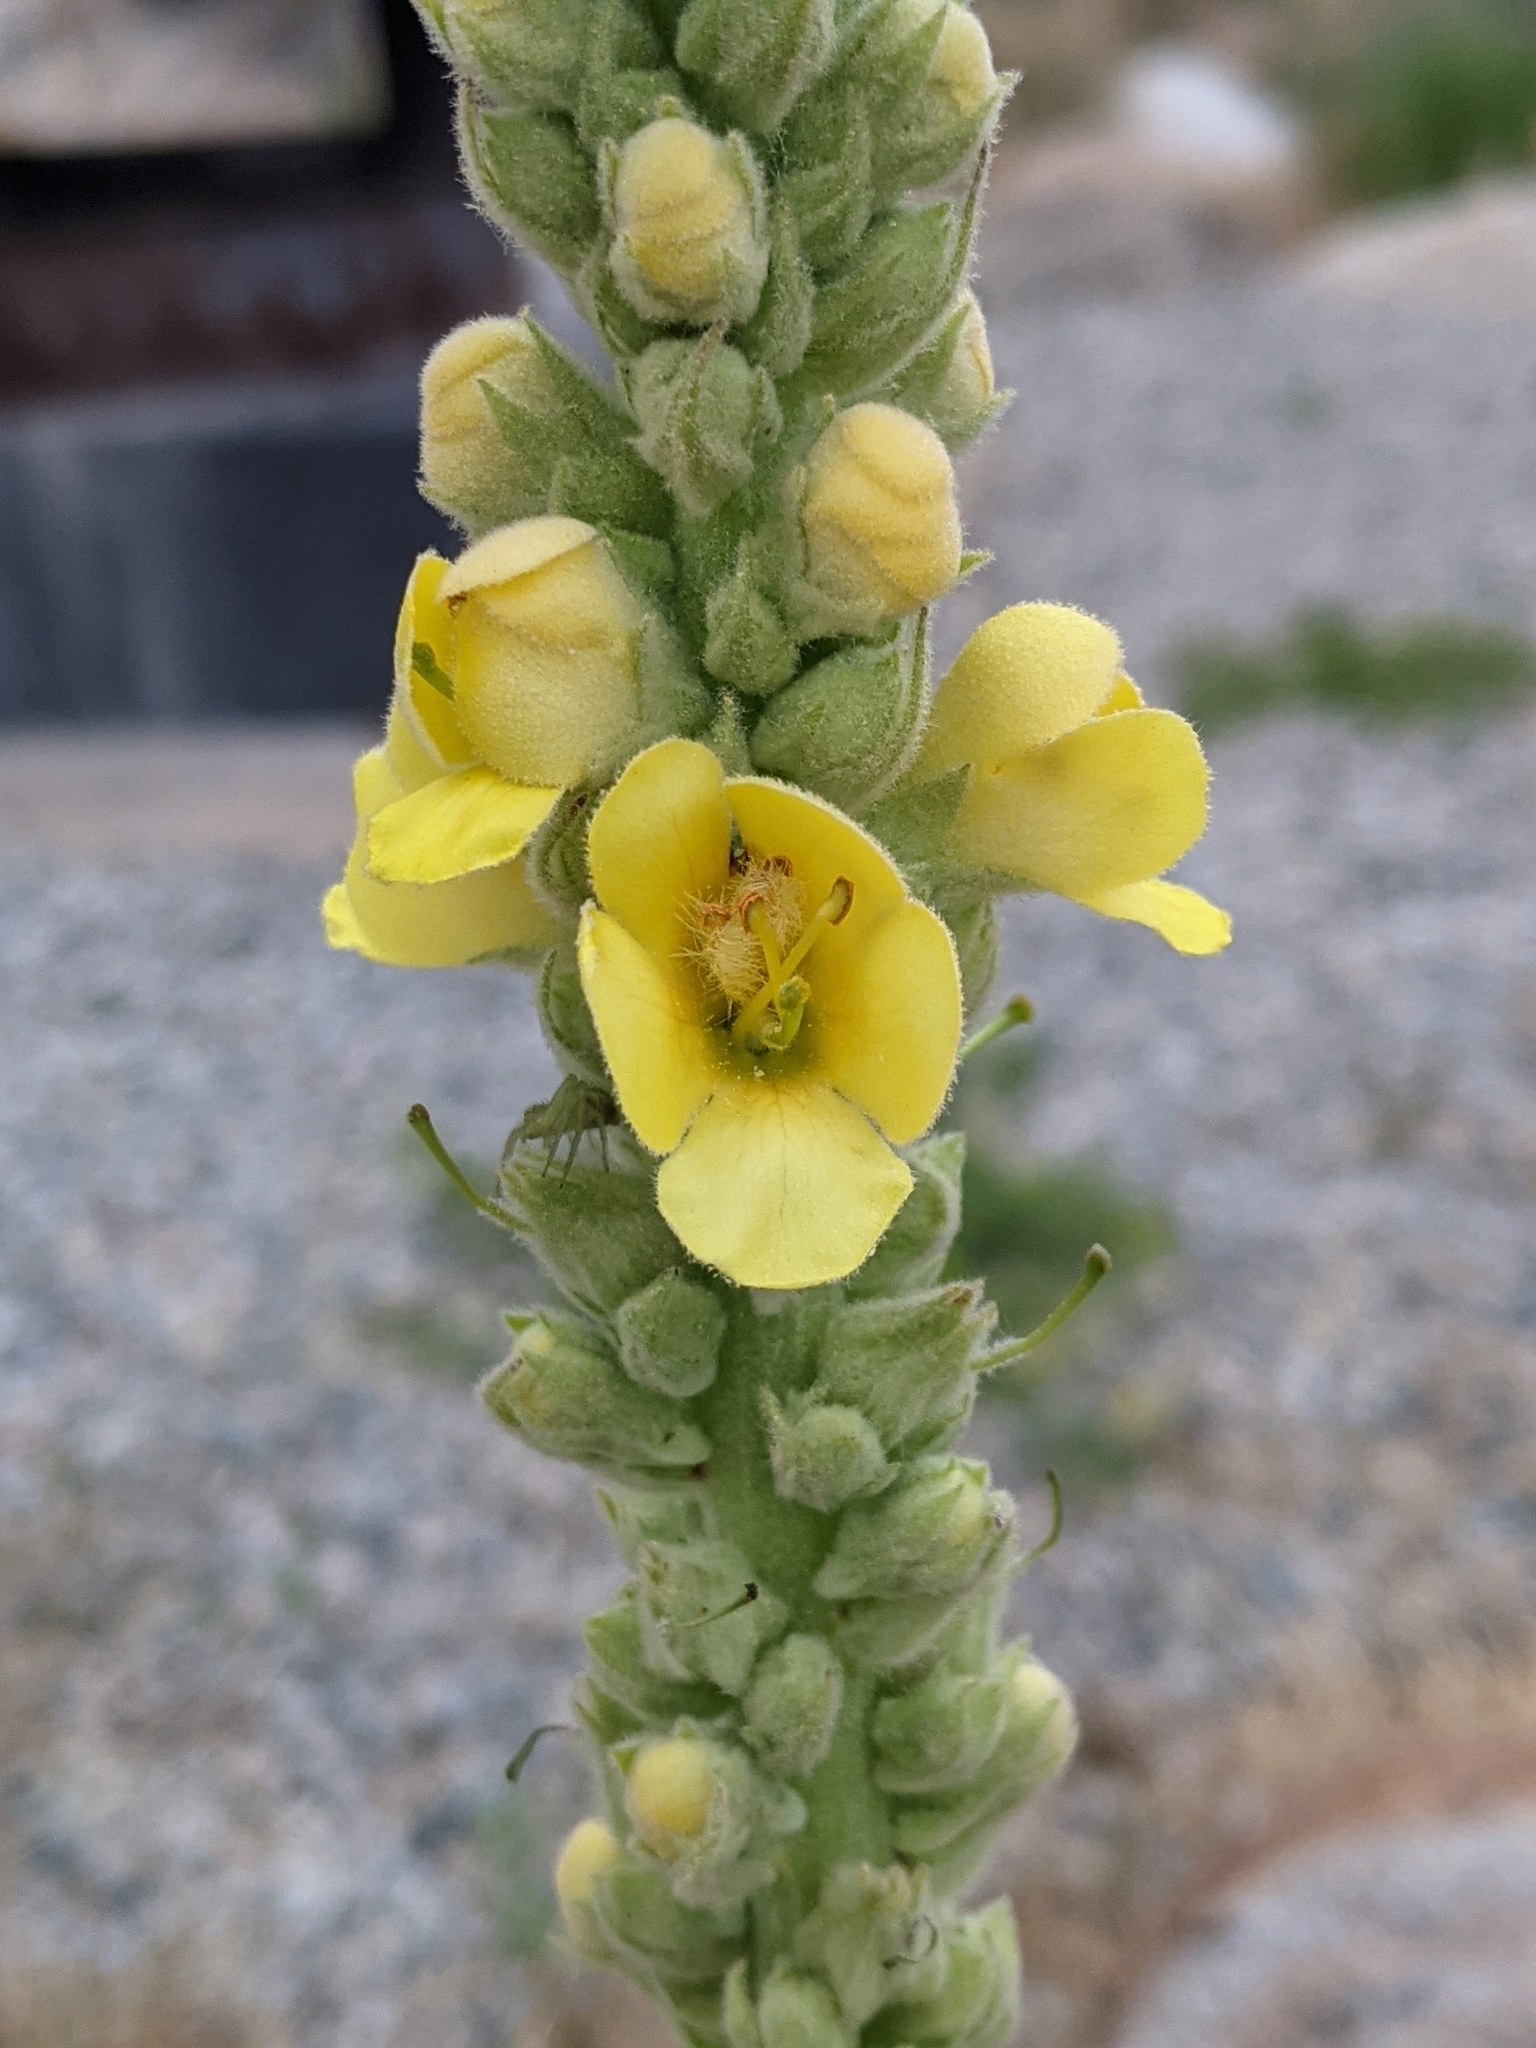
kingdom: Plantae
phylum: Tracheophyta
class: Magnoliopsida
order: Lamiales
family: Scrophulariaceae
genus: Verbascum
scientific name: Verbascum thapsus
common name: Common mullein
